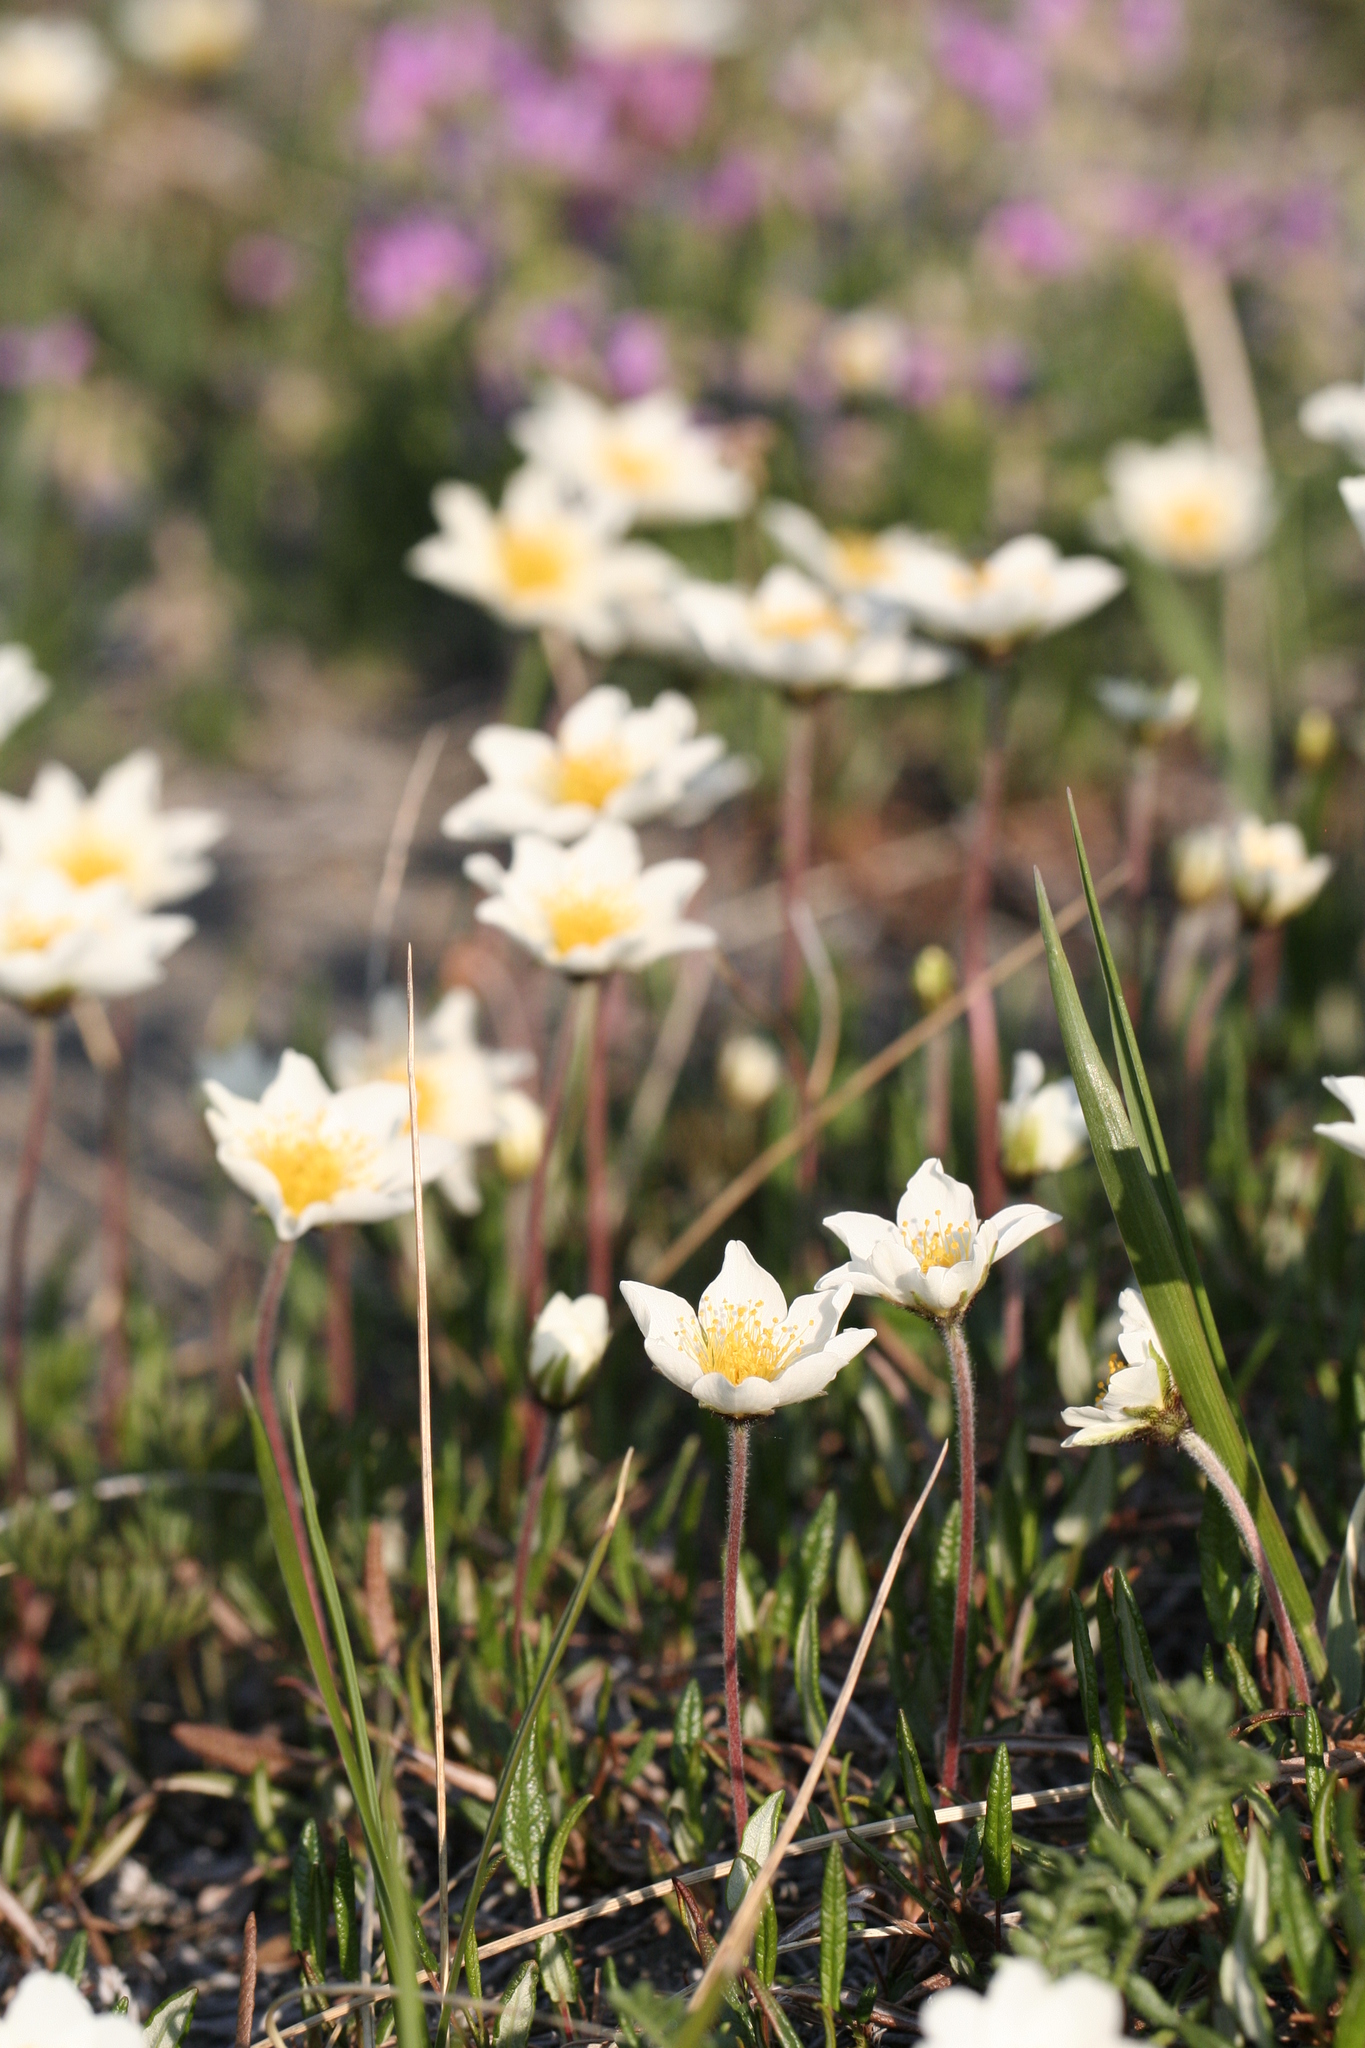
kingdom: Plantae
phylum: Tracheophyta
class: Magnoliopsida
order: Rosales
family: Rosaceae
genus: Dryas
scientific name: Dryas integrifolia
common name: Entire-leaved mountain avens
